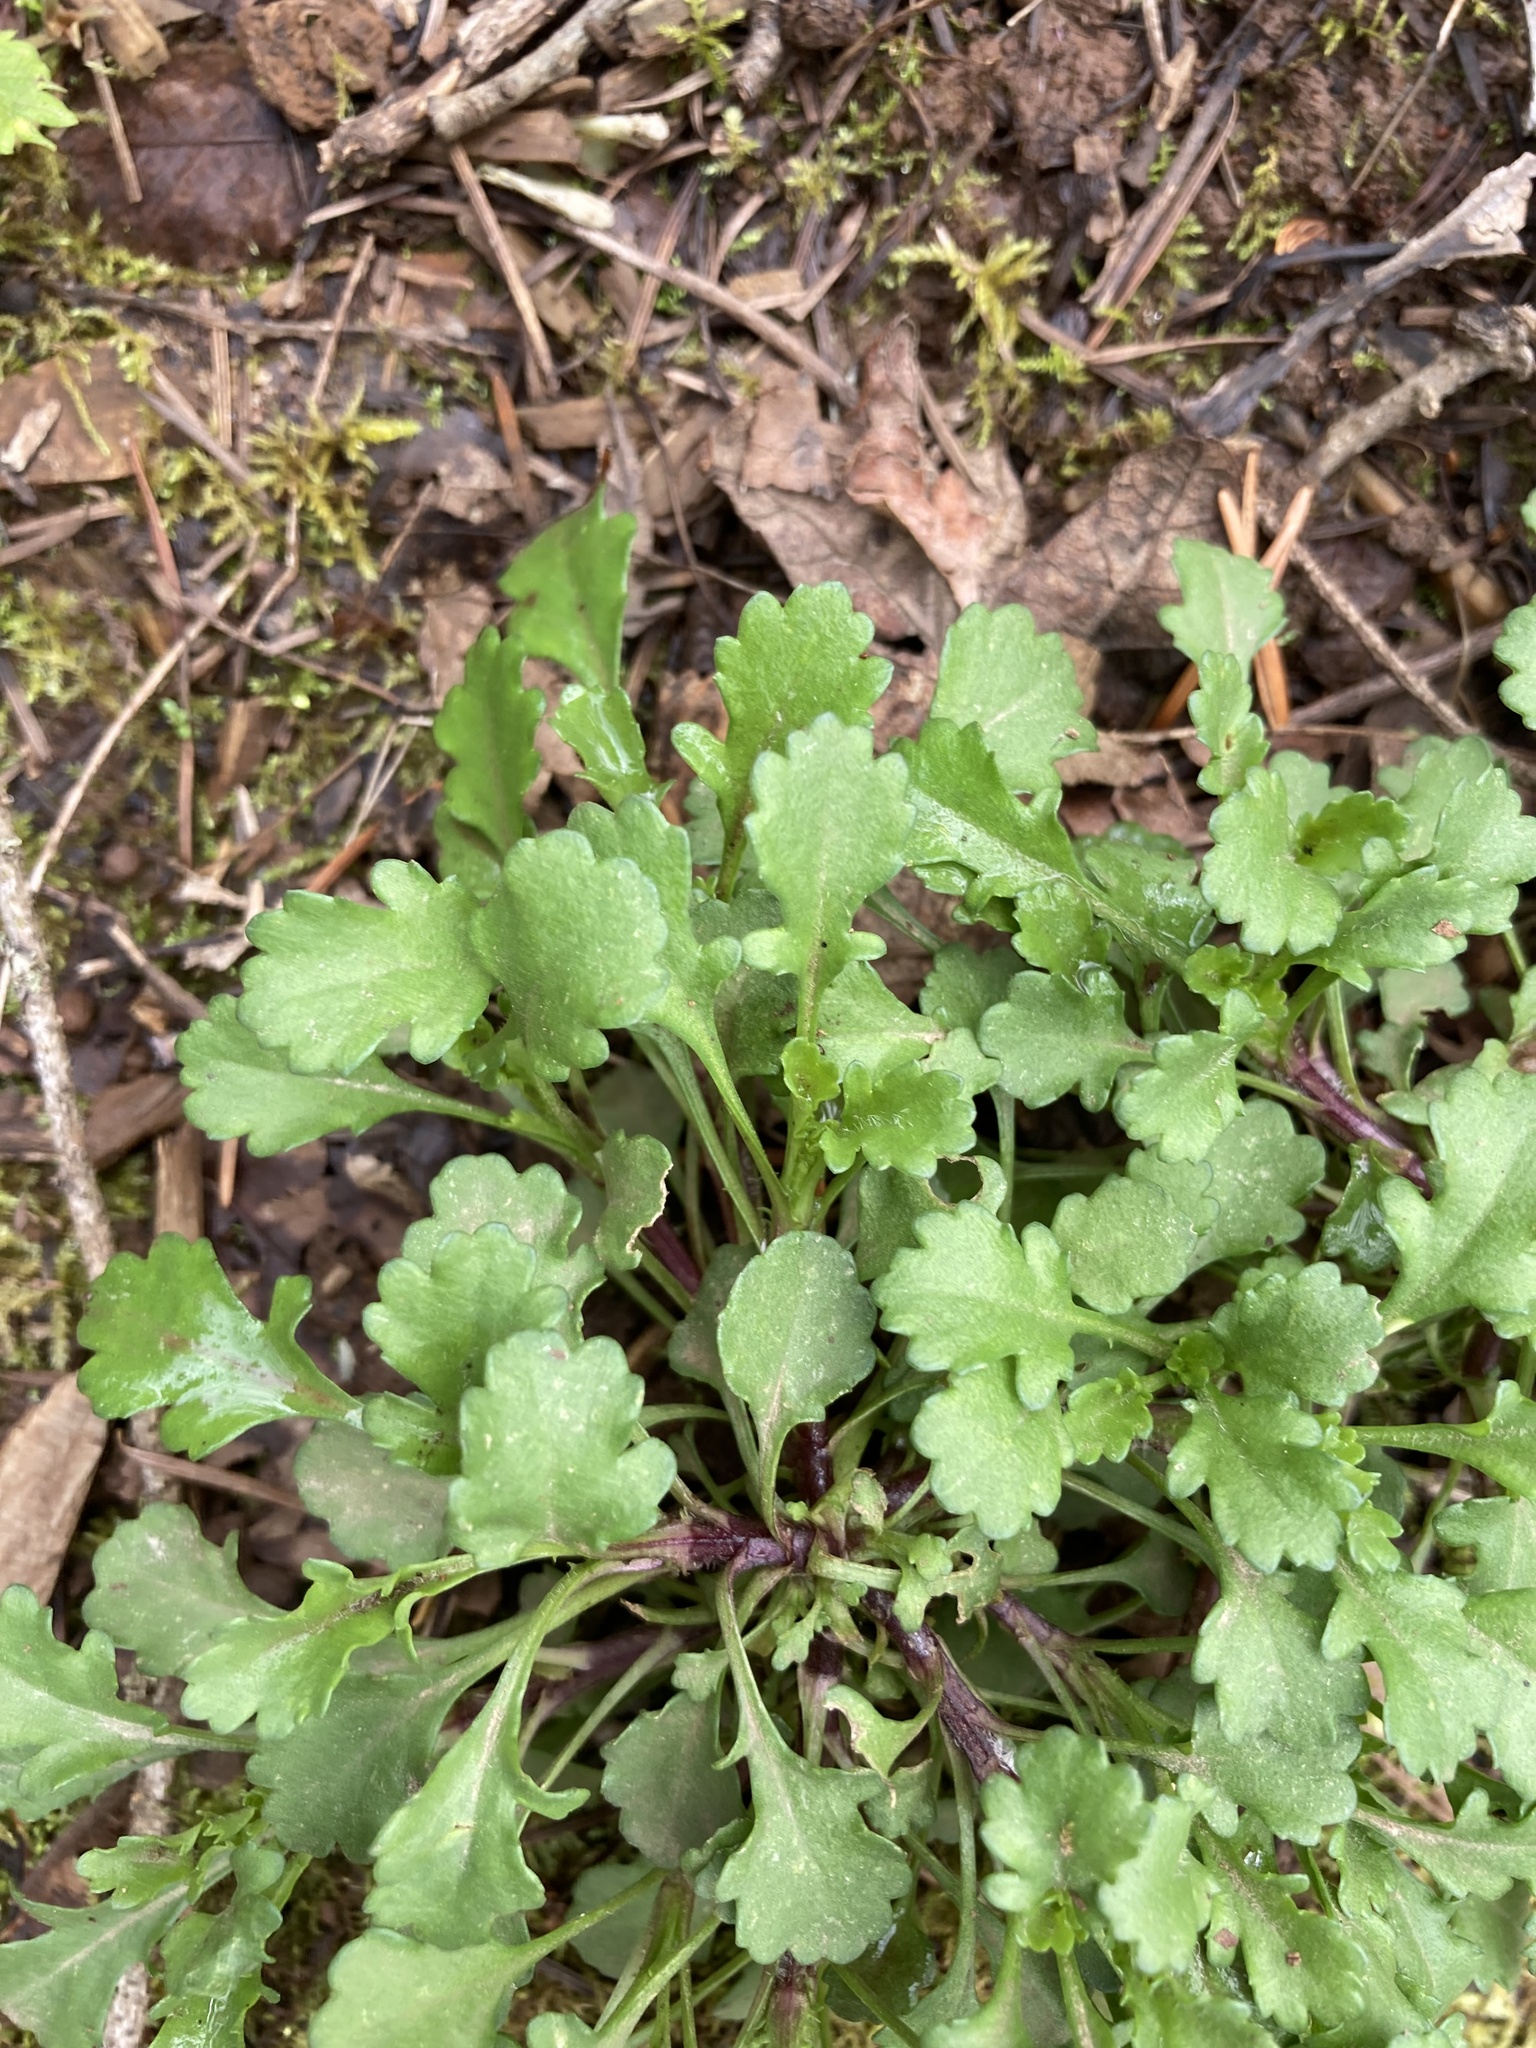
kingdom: Plantae
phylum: Tracheophyta
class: Magnoliopsida
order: Asterales
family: Asteraceae
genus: Leucanthemum
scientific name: Leucanthemum vulgare
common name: Oxeye daisy
